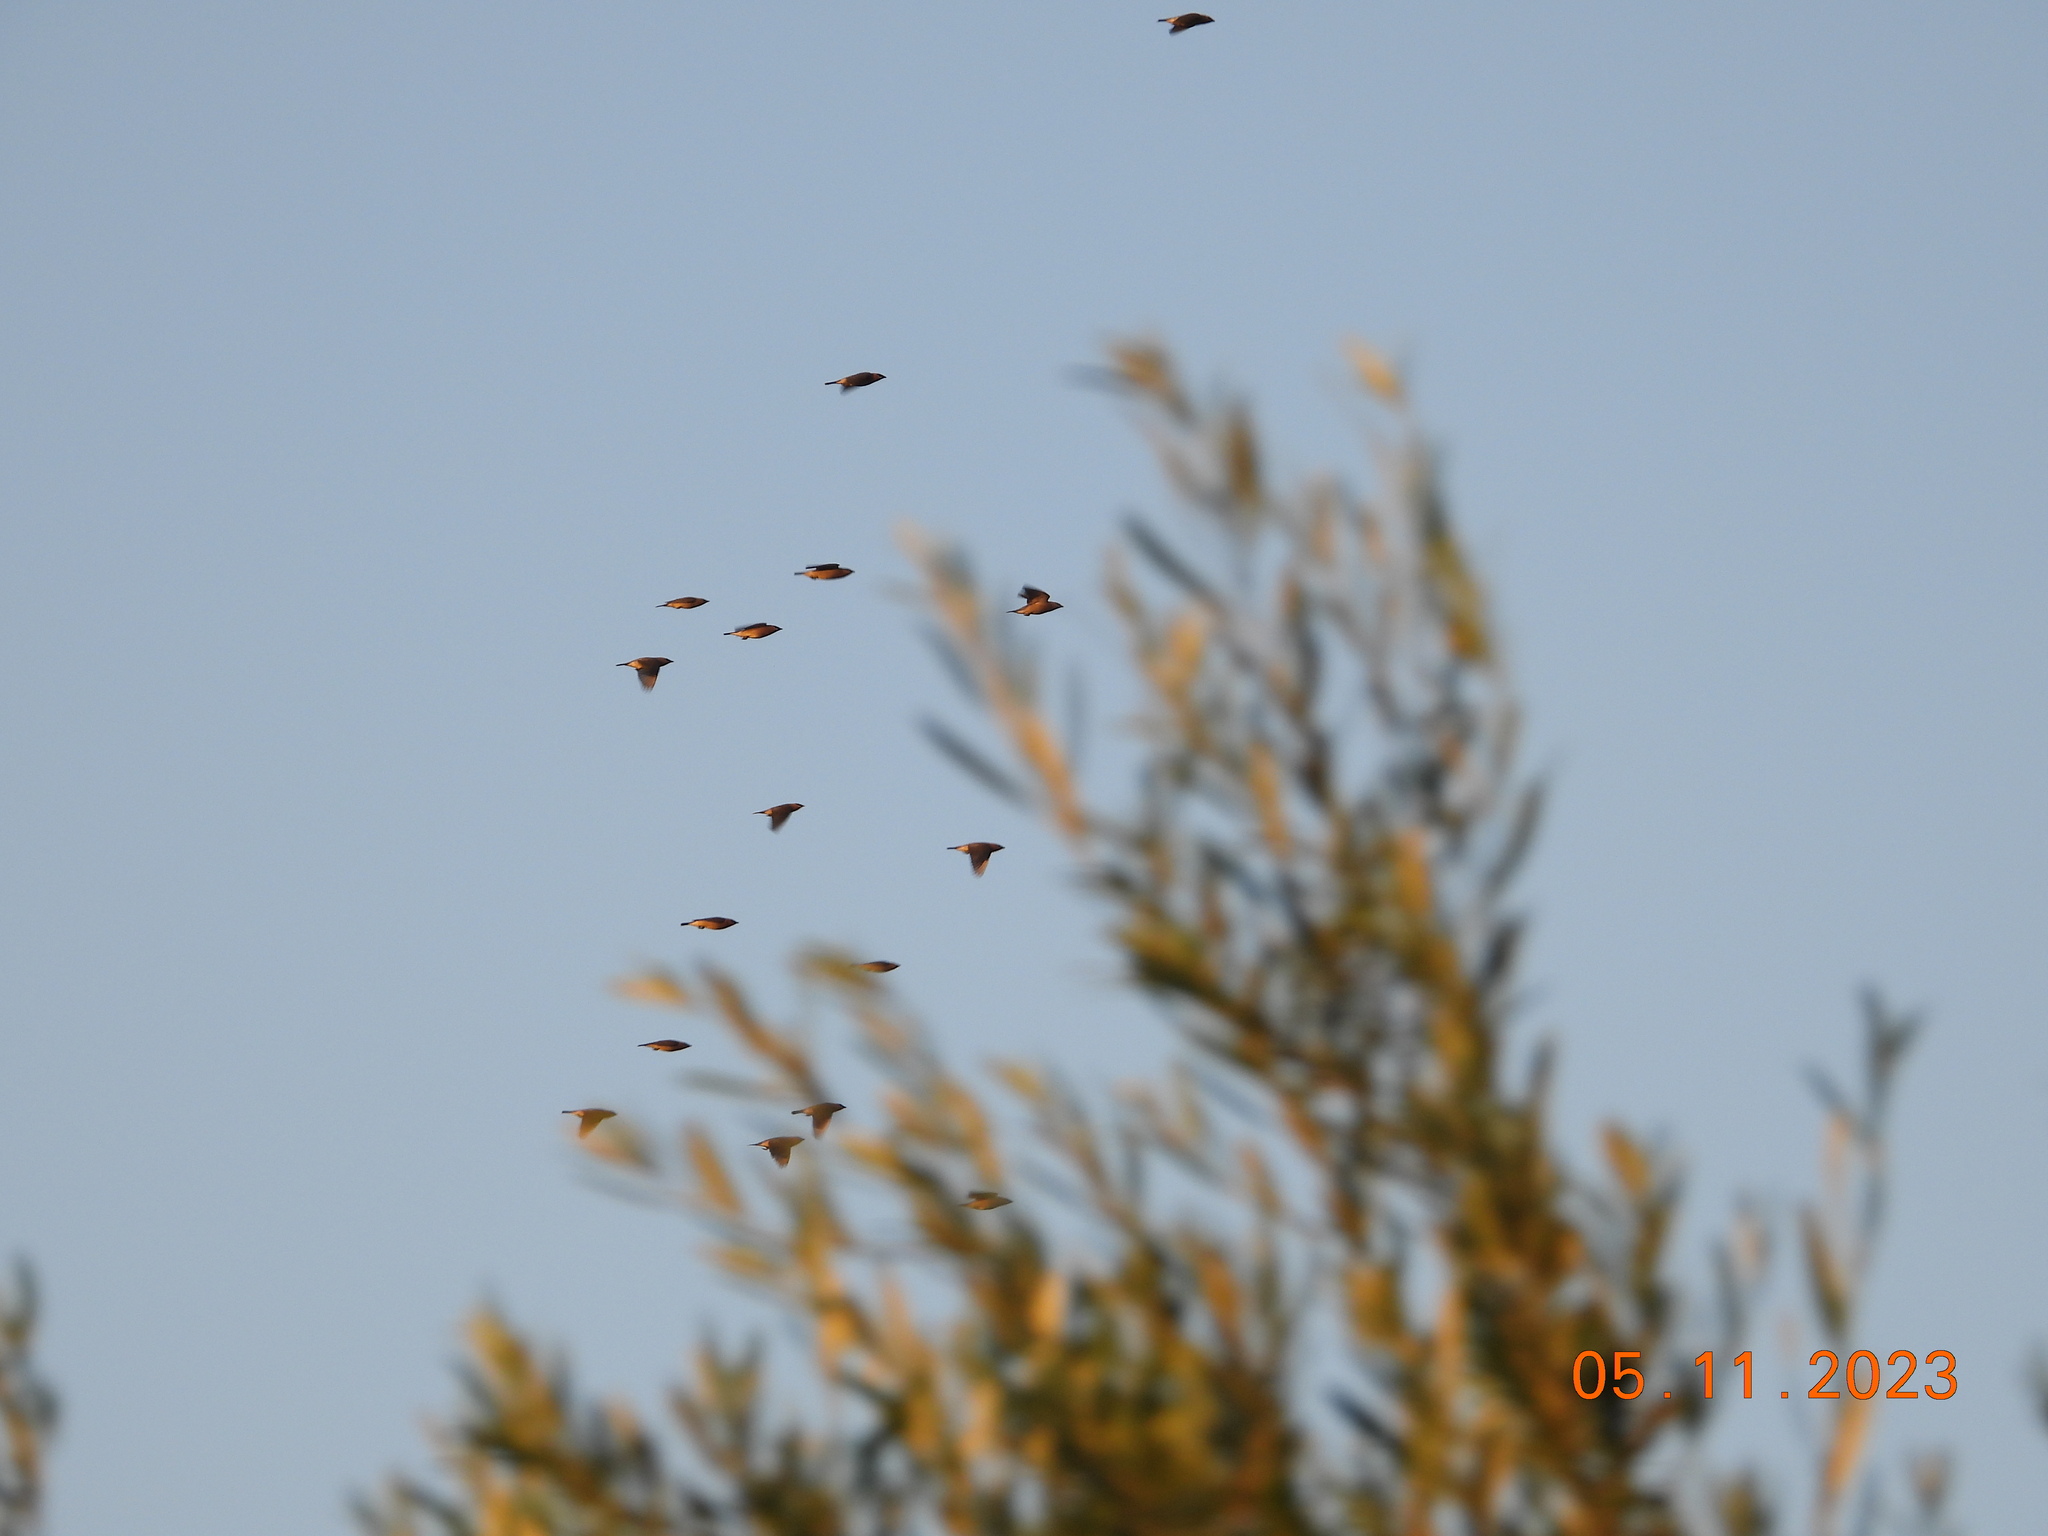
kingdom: Animalia
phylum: Chordata
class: Aves
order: Passeriformes
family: Bombycillidae
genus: Bombycilla
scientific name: Bombycilla cedrorum
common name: Cedar waxwing
